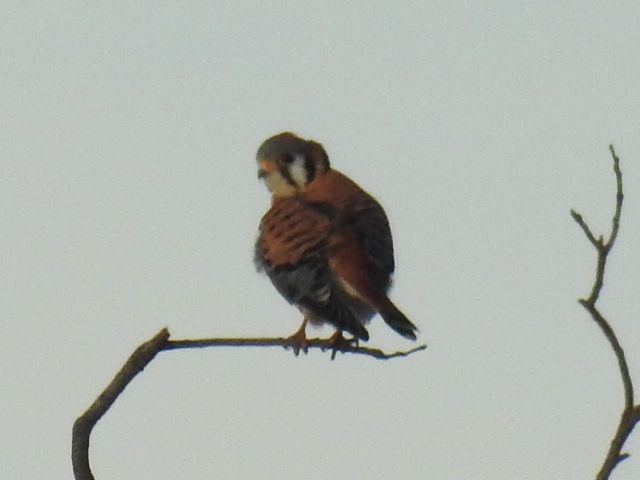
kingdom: Animalia
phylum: Chordata
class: Aves
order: Falconiformes
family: Falconidae
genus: Falco
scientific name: Falco sparverius
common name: American kestrel
